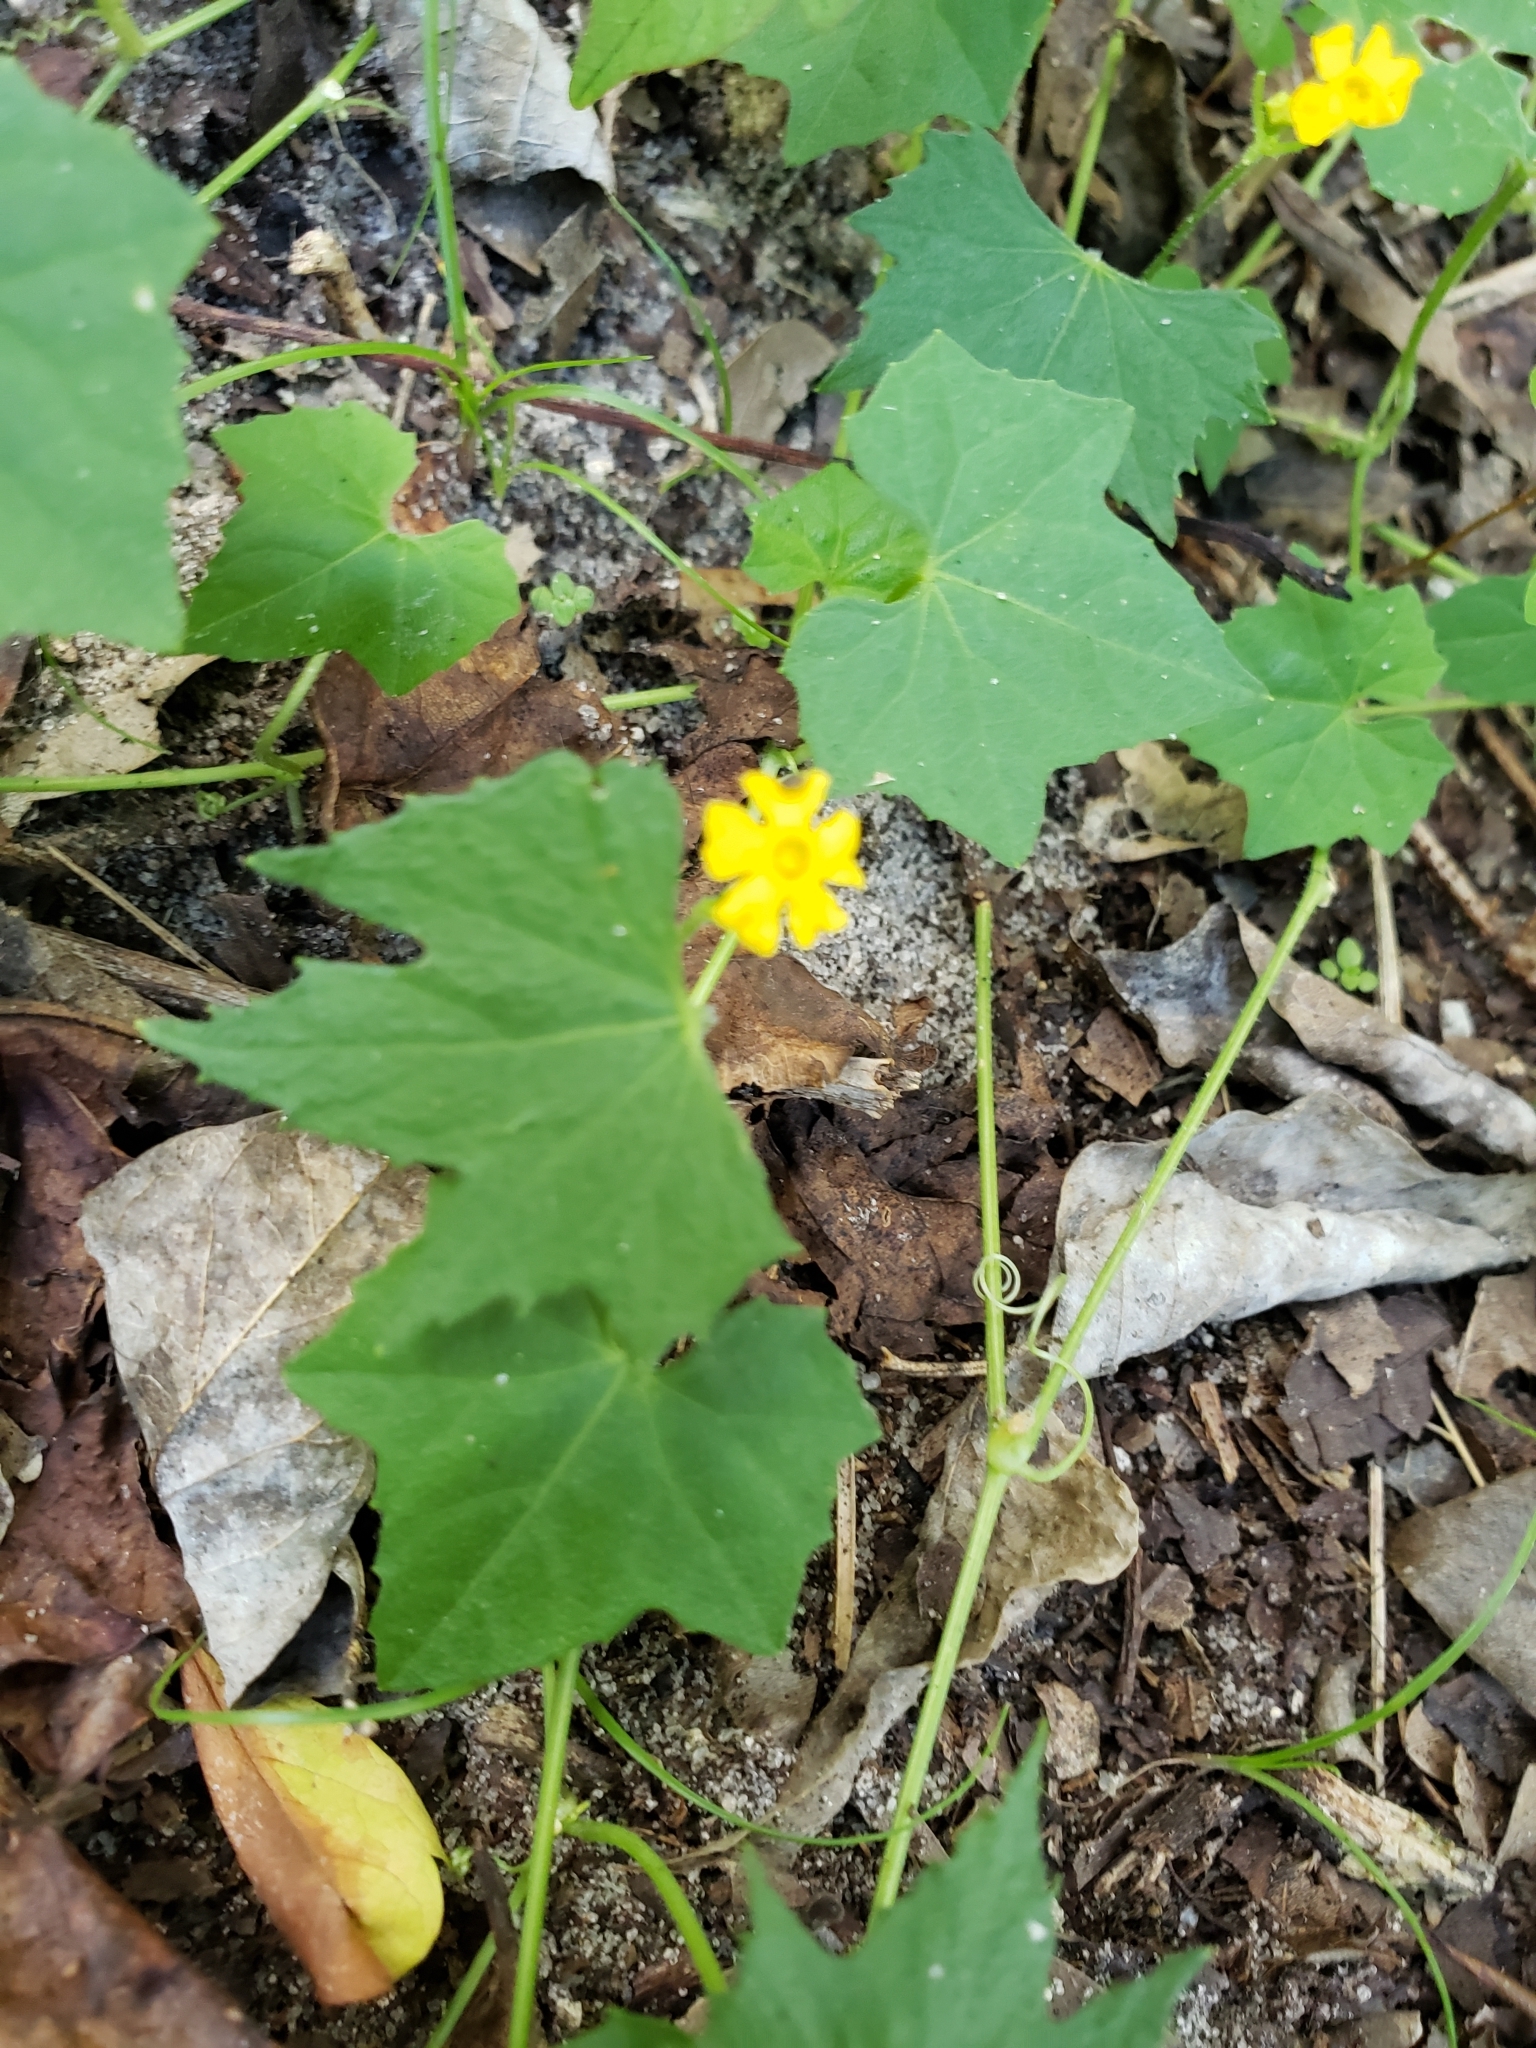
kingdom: Plantae
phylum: Tracheophyta
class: Magnoliopsida
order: Cucurbitales
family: Cucurbitaceae
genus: Melothria
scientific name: Melothria pendula
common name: Creeping-cucumber
